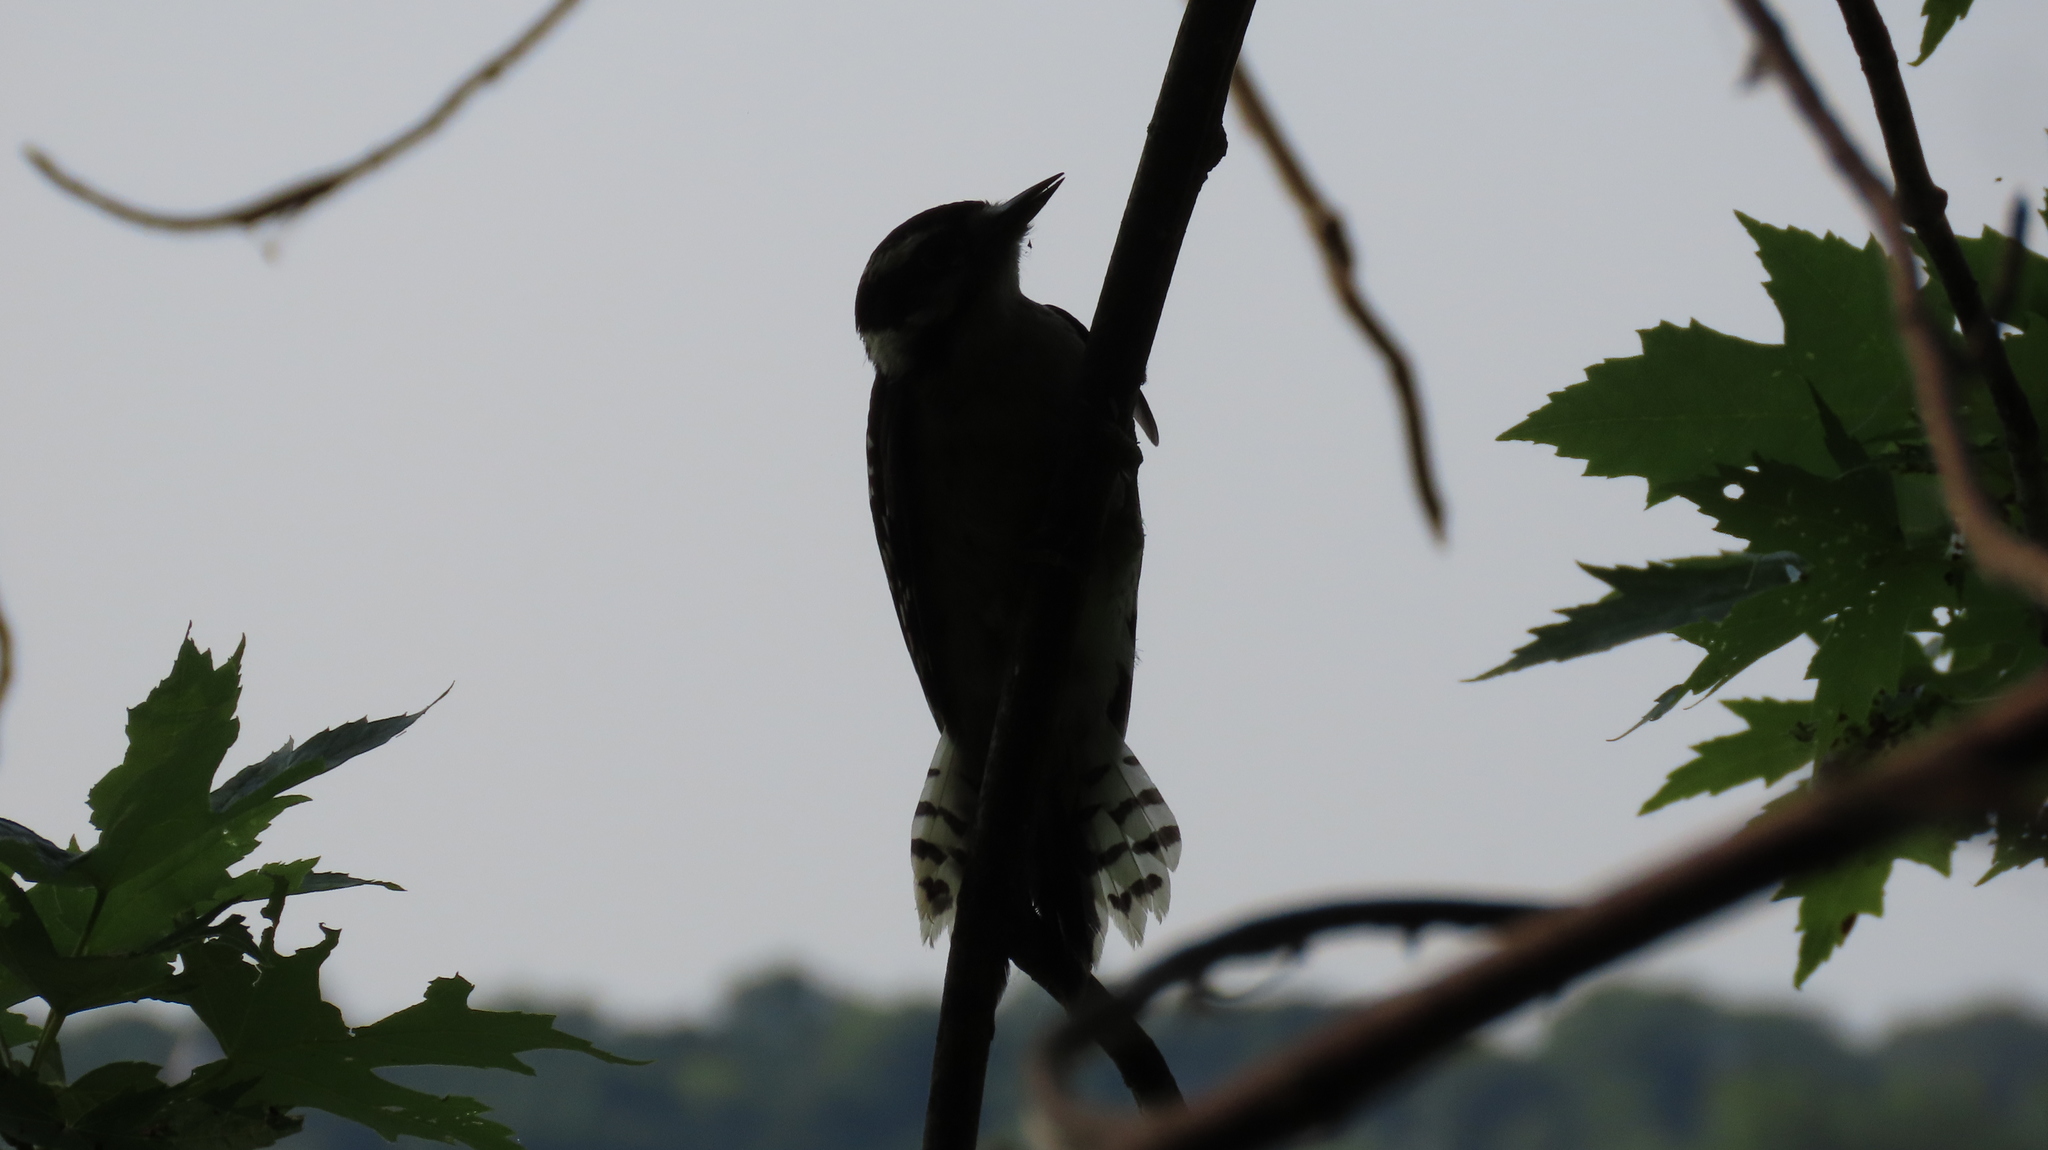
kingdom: Animalia
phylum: Chordata
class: Aves
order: Piciformes
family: Picidae
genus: Dryobates
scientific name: Dryobates pubescens
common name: Downy woodpecker
